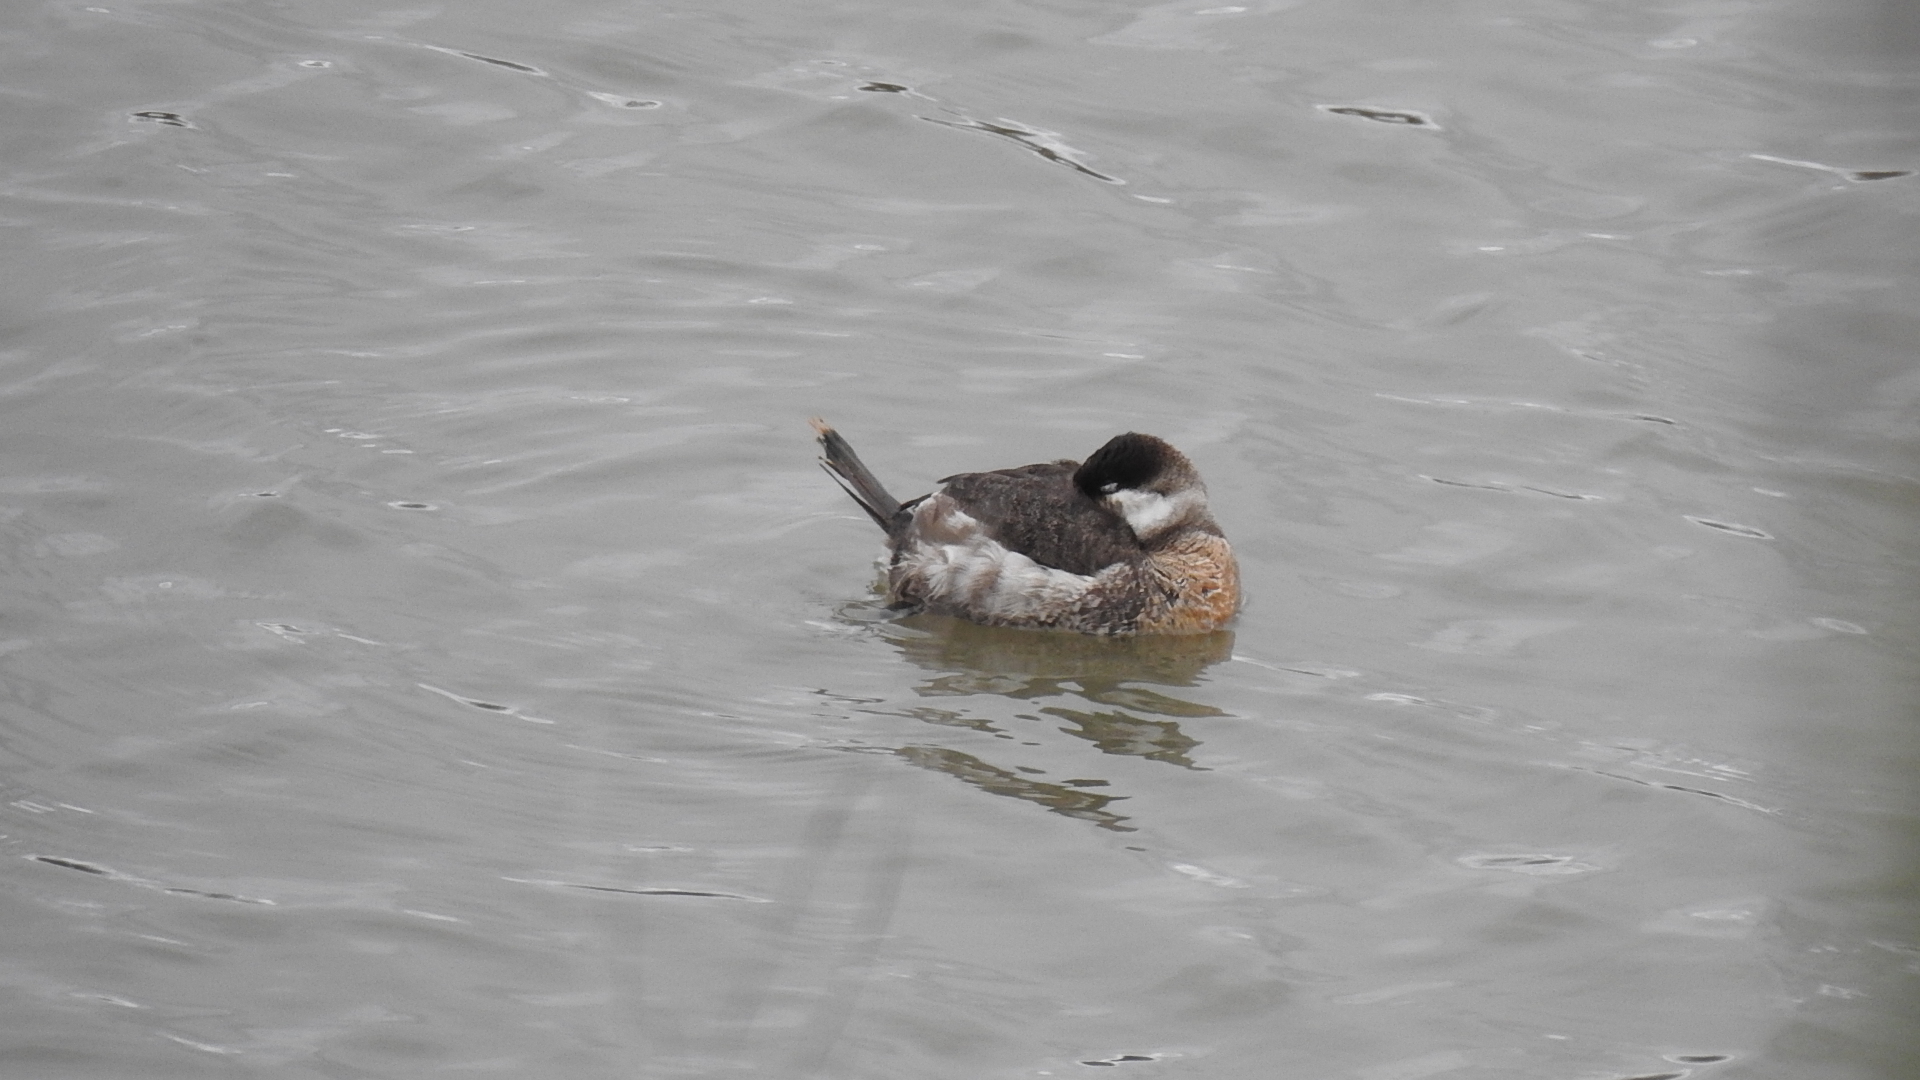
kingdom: Animalia
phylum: Chordata
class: Aves
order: Anseriformes
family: Anatidae
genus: Oxyura
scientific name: Oxyura jamaicensis
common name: Ruddy duck
